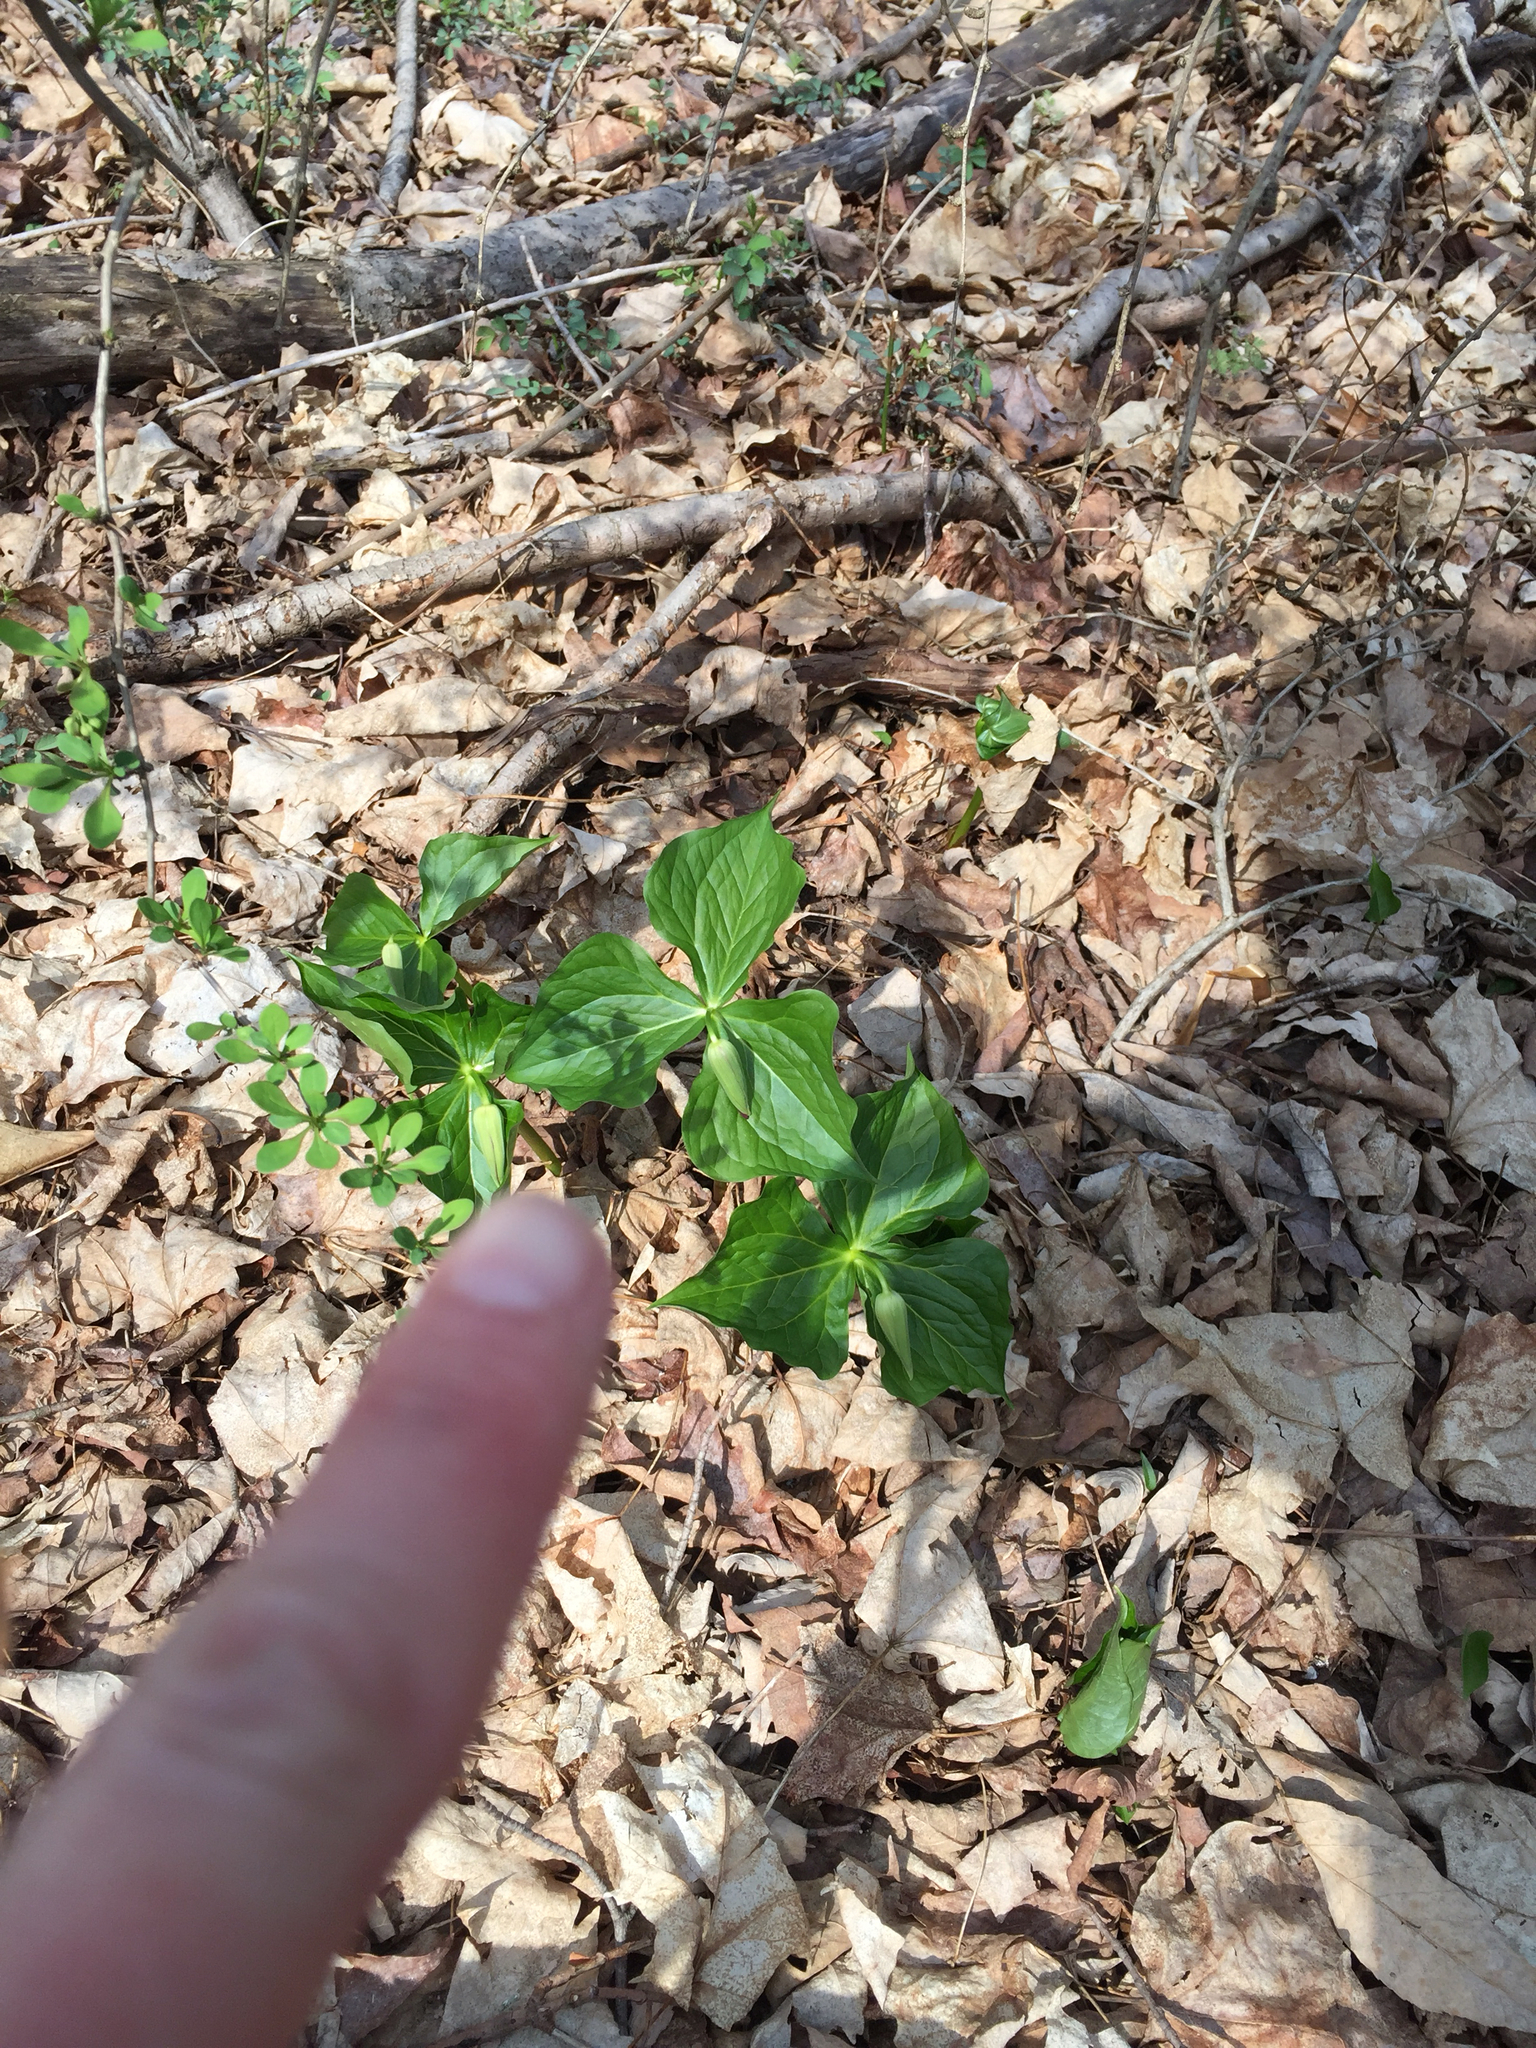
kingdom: Plantae
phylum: Tracheophyta
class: Liliopsida
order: Liliales
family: Melanthiaceae
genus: Trillium
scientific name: Trillium erectum
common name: Purple trillium
